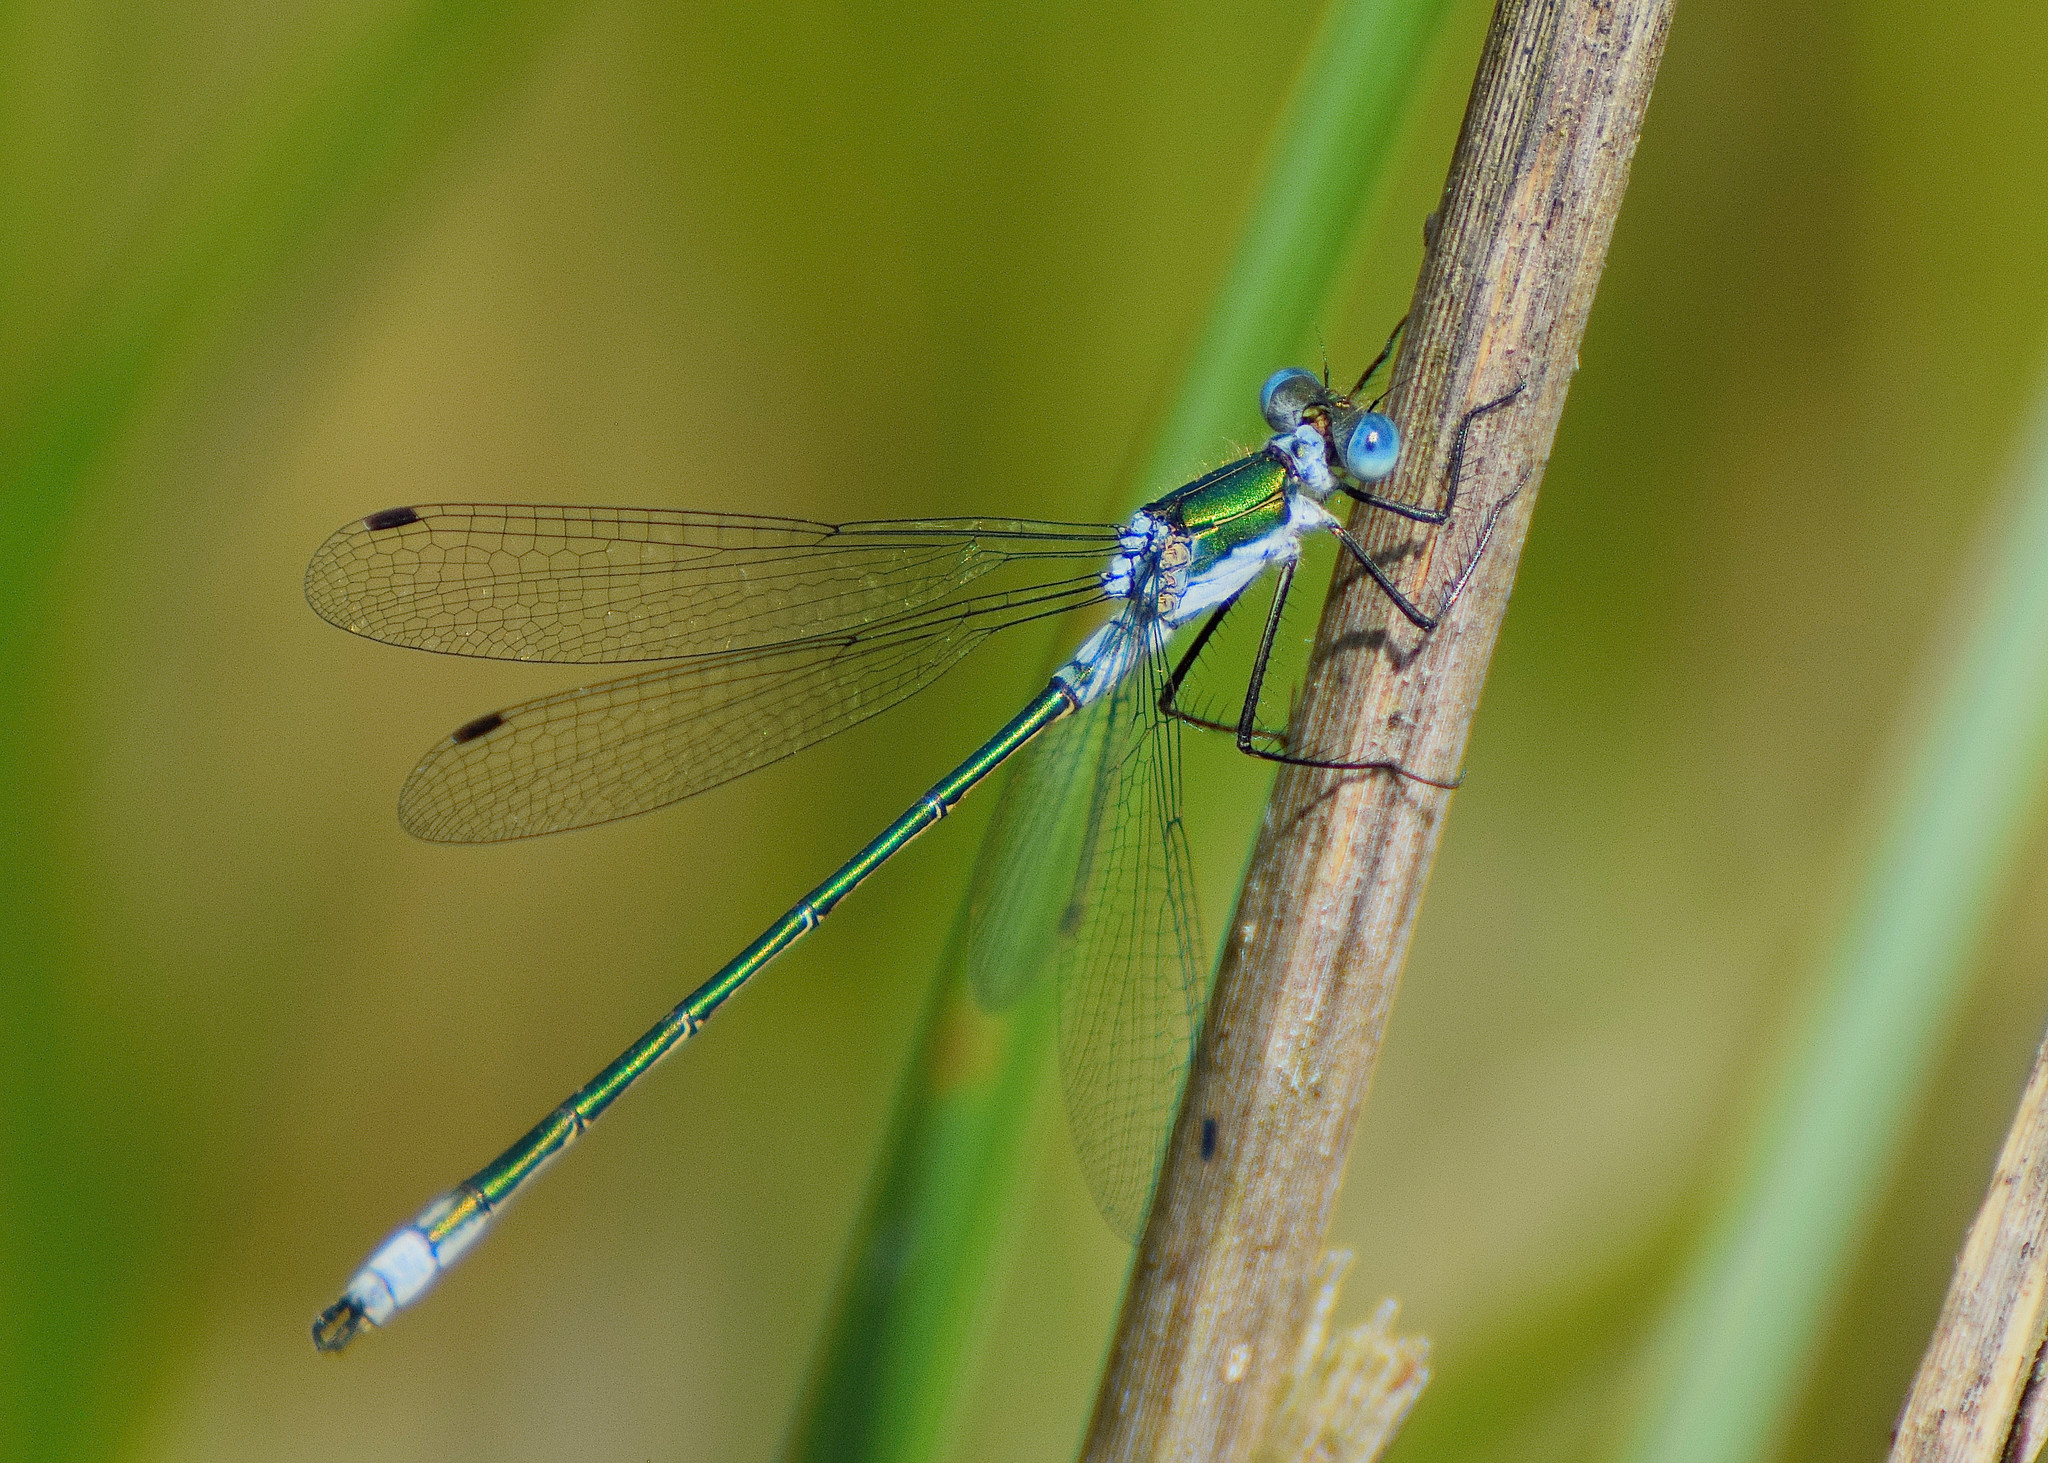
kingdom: Animalia
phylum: Arthropoda
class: Insecta
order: Odonata
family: Lestidae
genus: Lestes
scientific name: Lestes sponsa
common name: Common spreadwing
